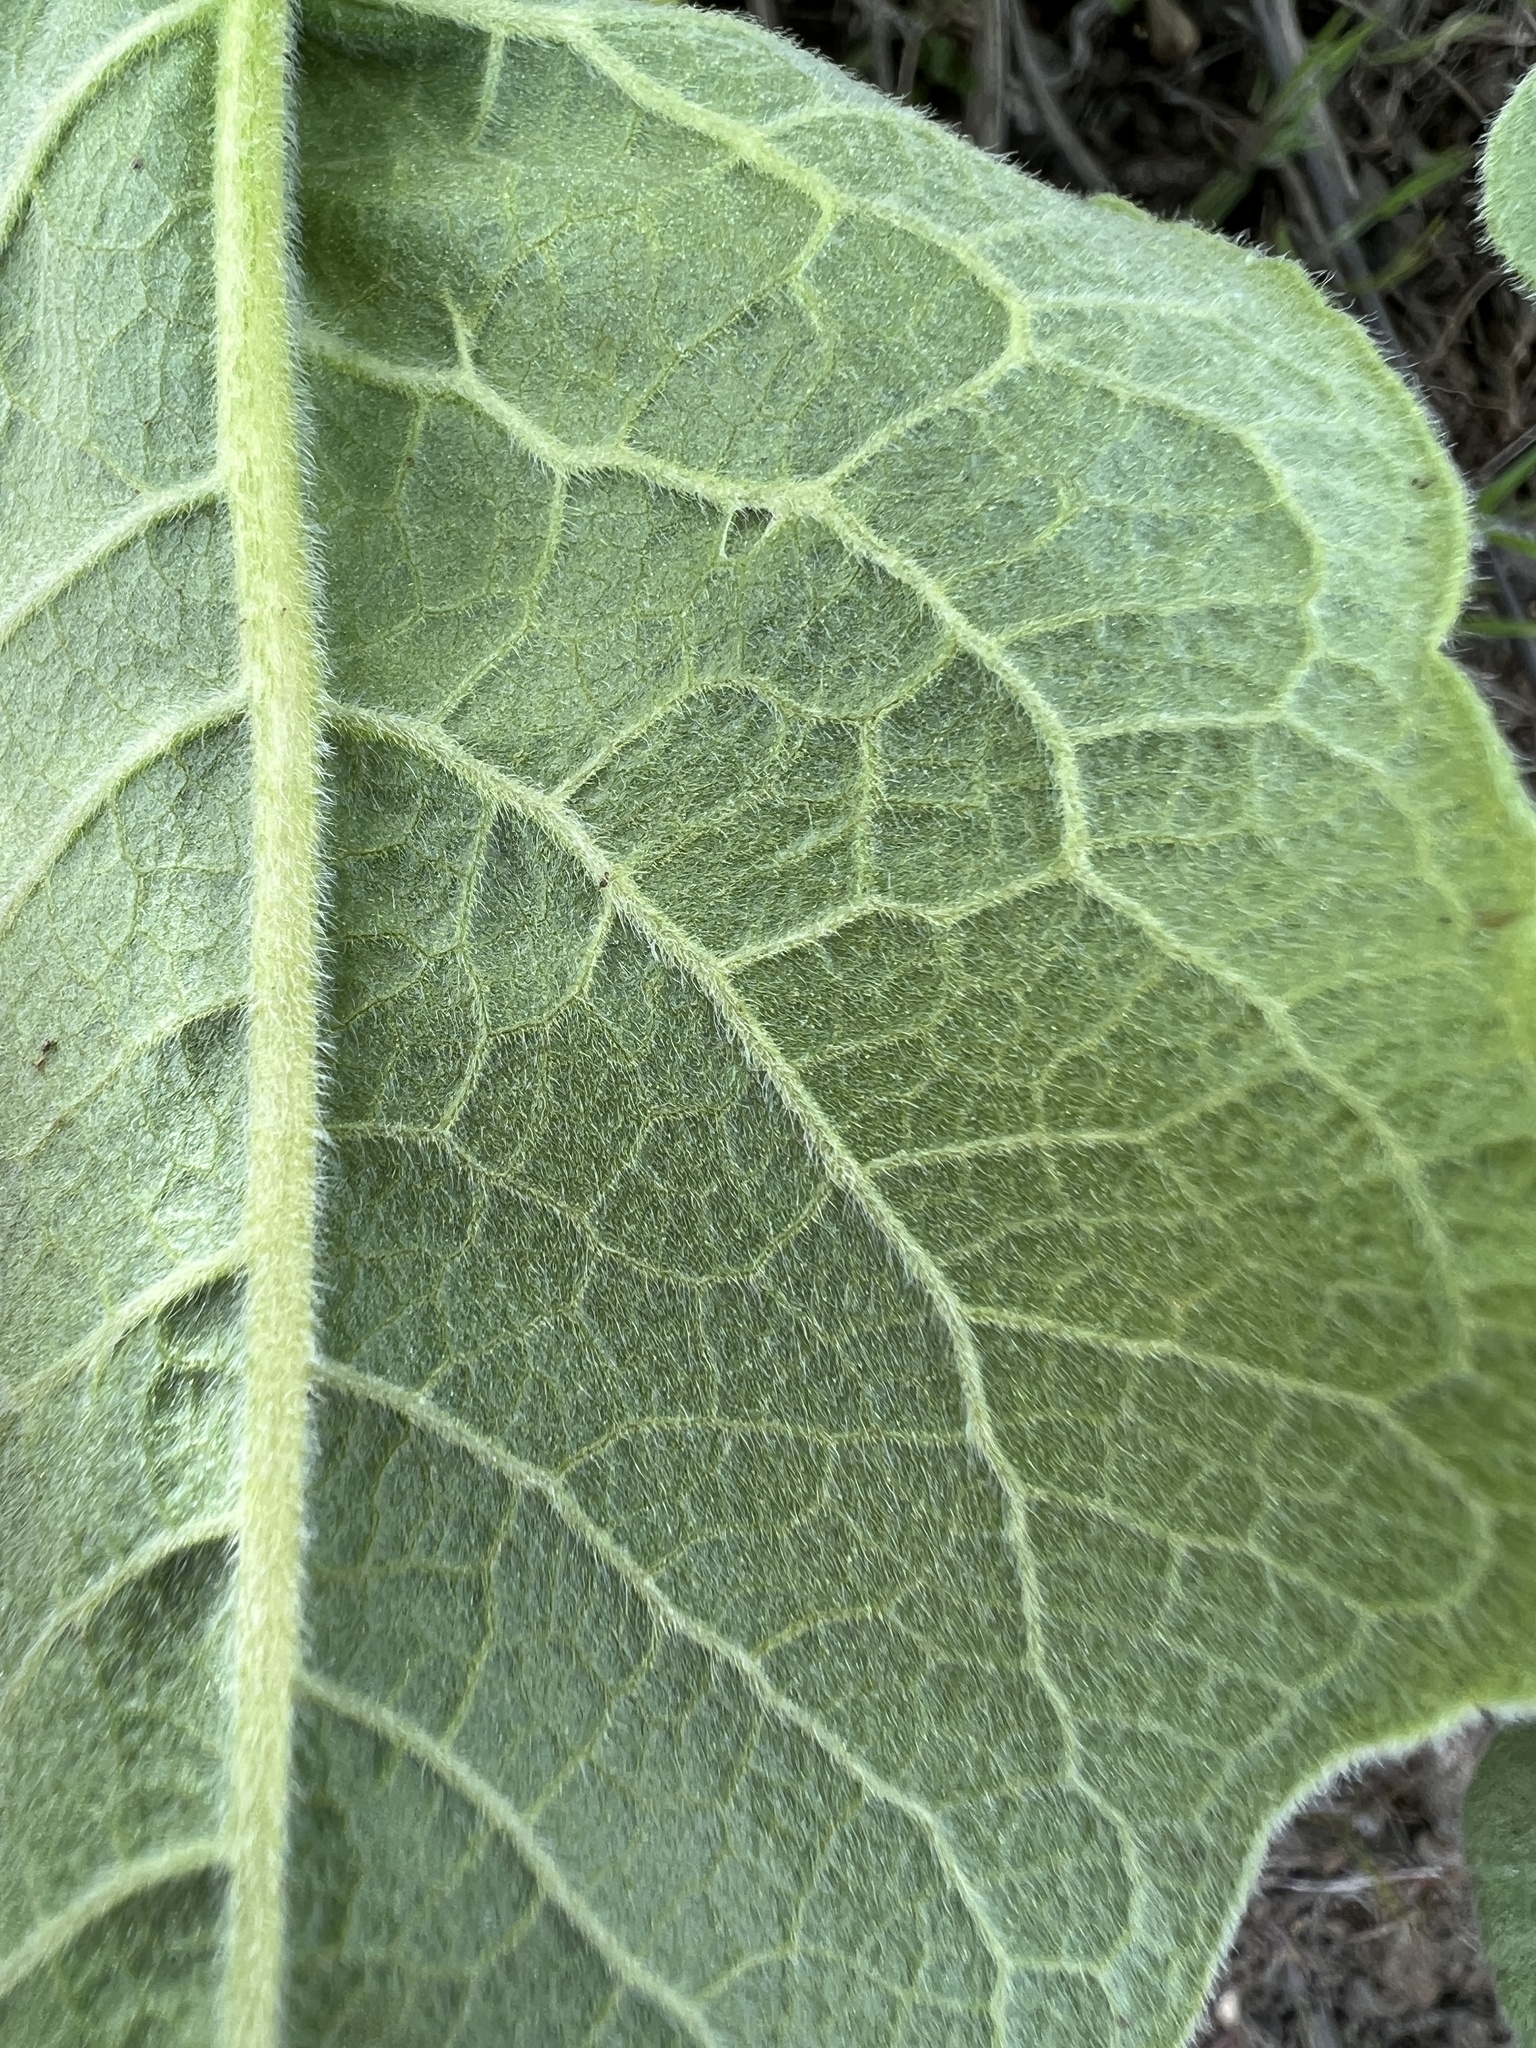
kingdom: Plantae
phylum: Tracheophyta
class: Magnoliopsida
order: Asterales
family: Asteraceae
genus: Wyethia
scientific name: Wyethia sagittata
